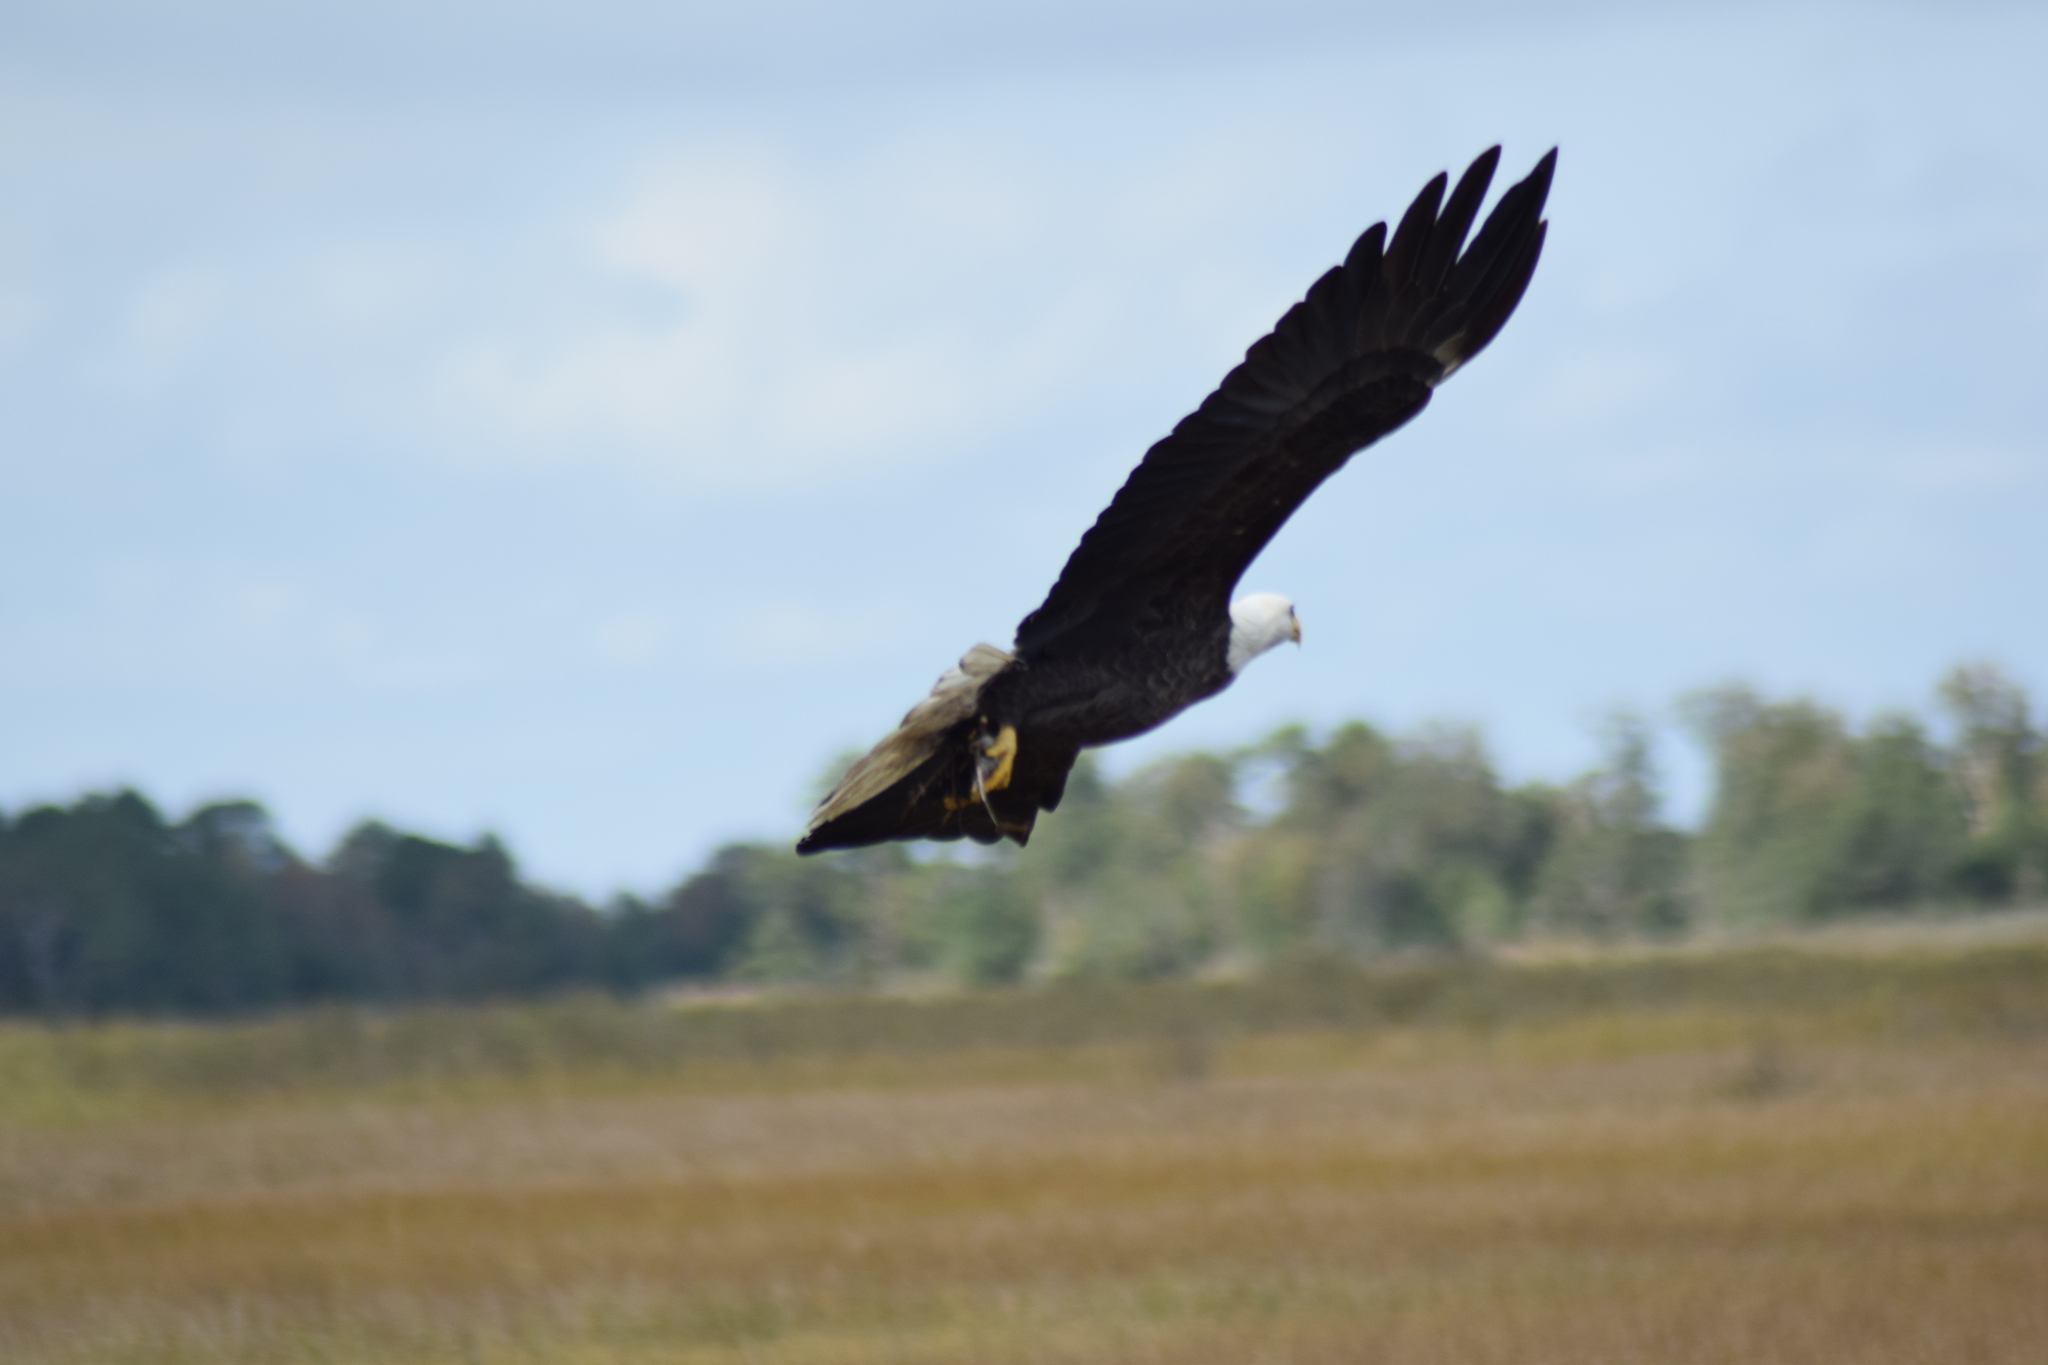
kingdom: Animalia
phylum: Chordata
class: Aves
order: Accipitriformes
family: Accipitridae
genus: Haliaeetus
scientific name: Haliaeetus leucocephalus
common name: Bald eagle
